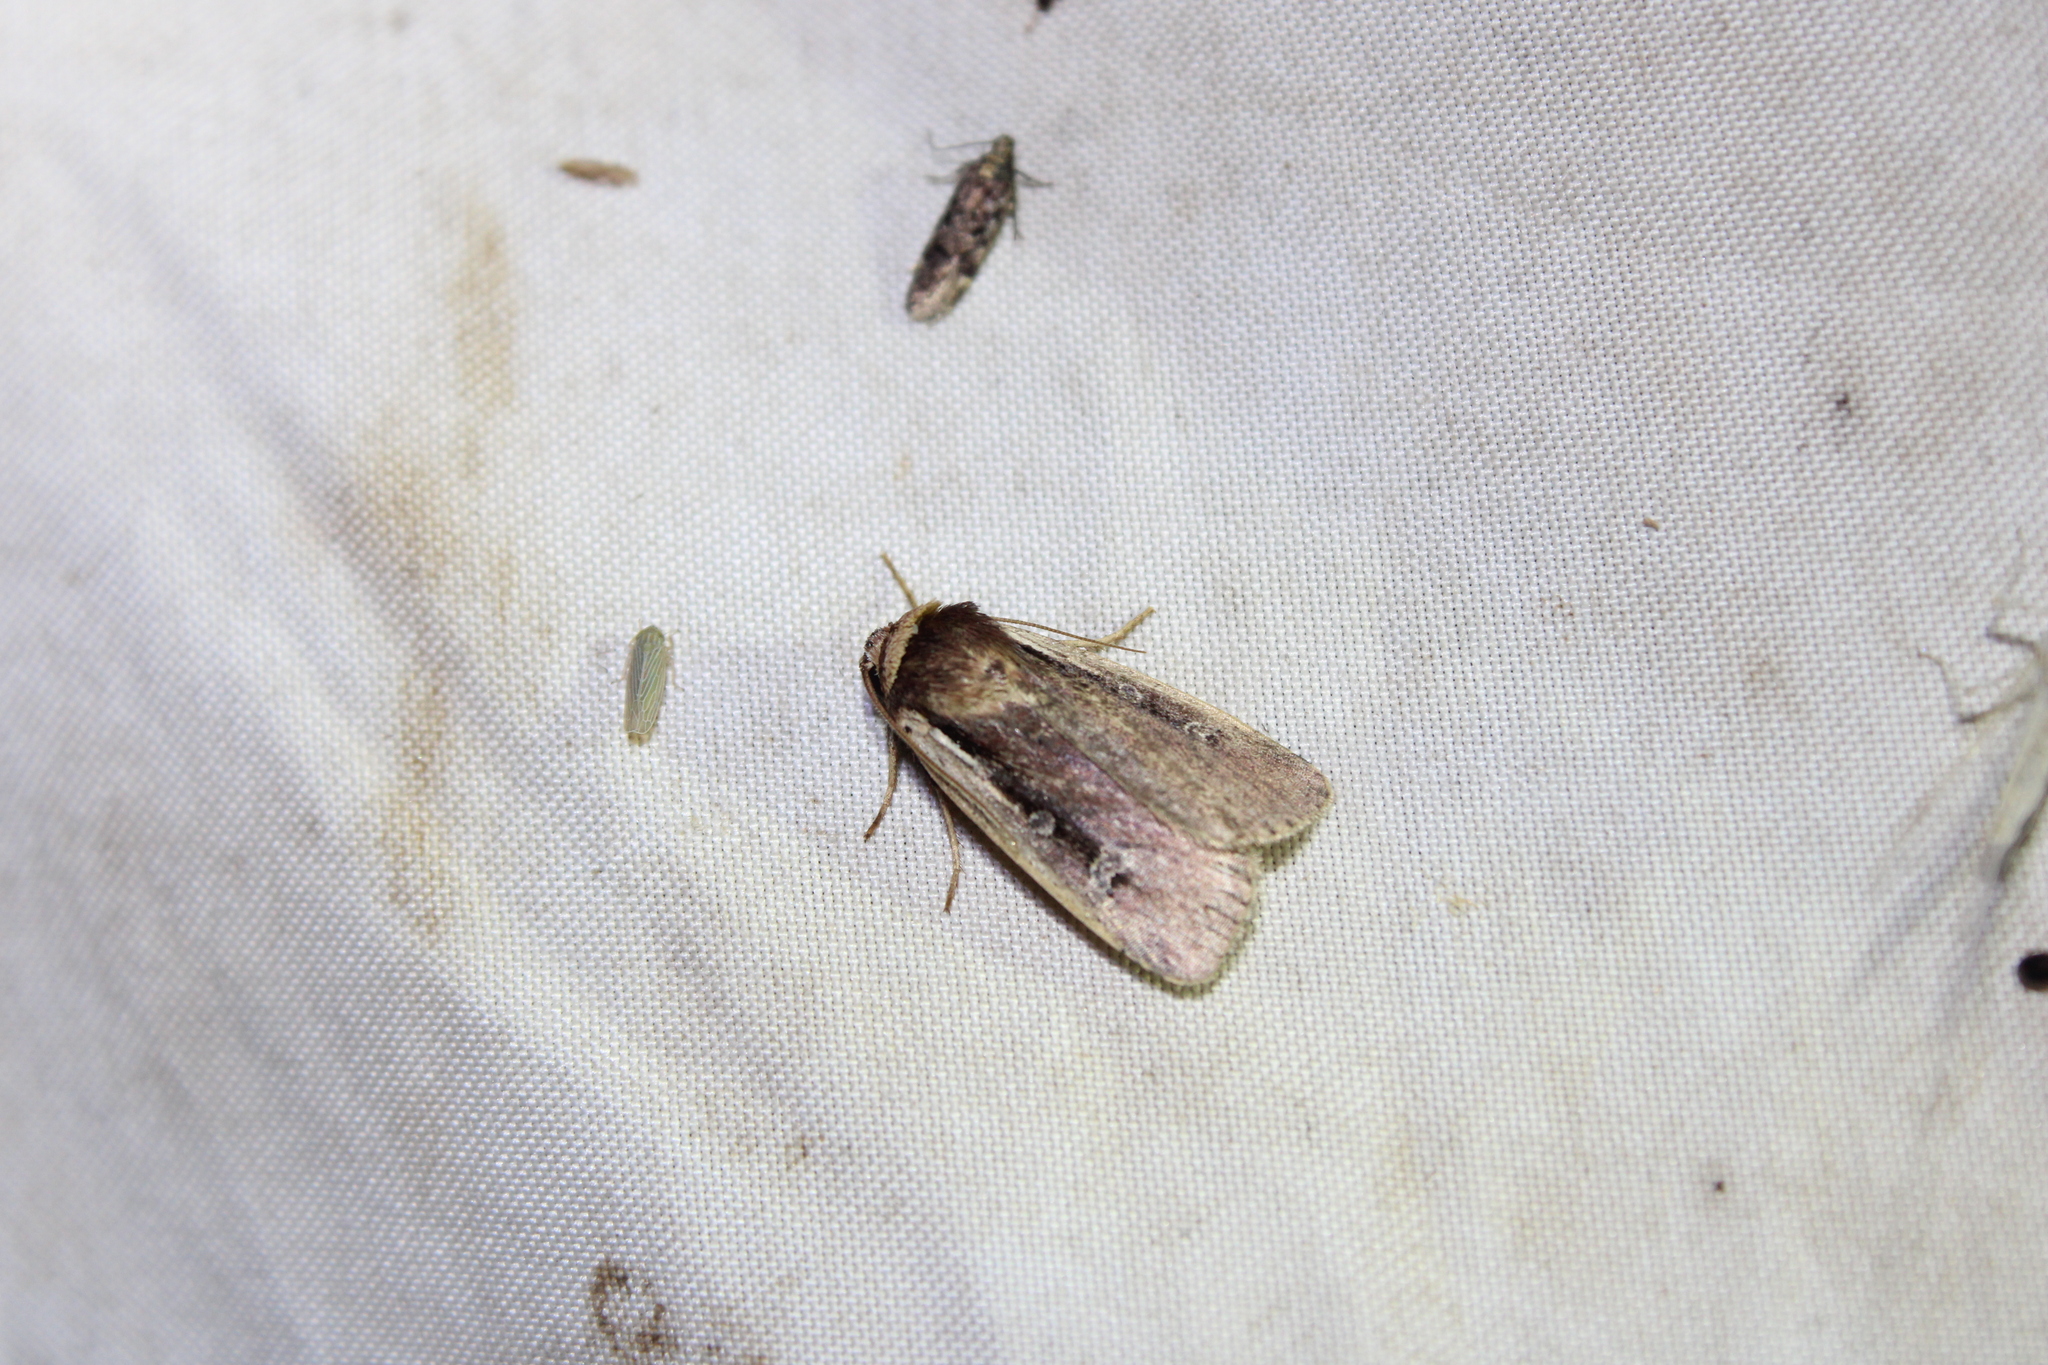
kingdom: Animalia
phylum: Arthropoda
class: Insecta
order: Lepidoptera
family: Noctuidae
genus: Ochropleura
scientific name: Ochropleura implecta
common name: Flame-shouldered dart
